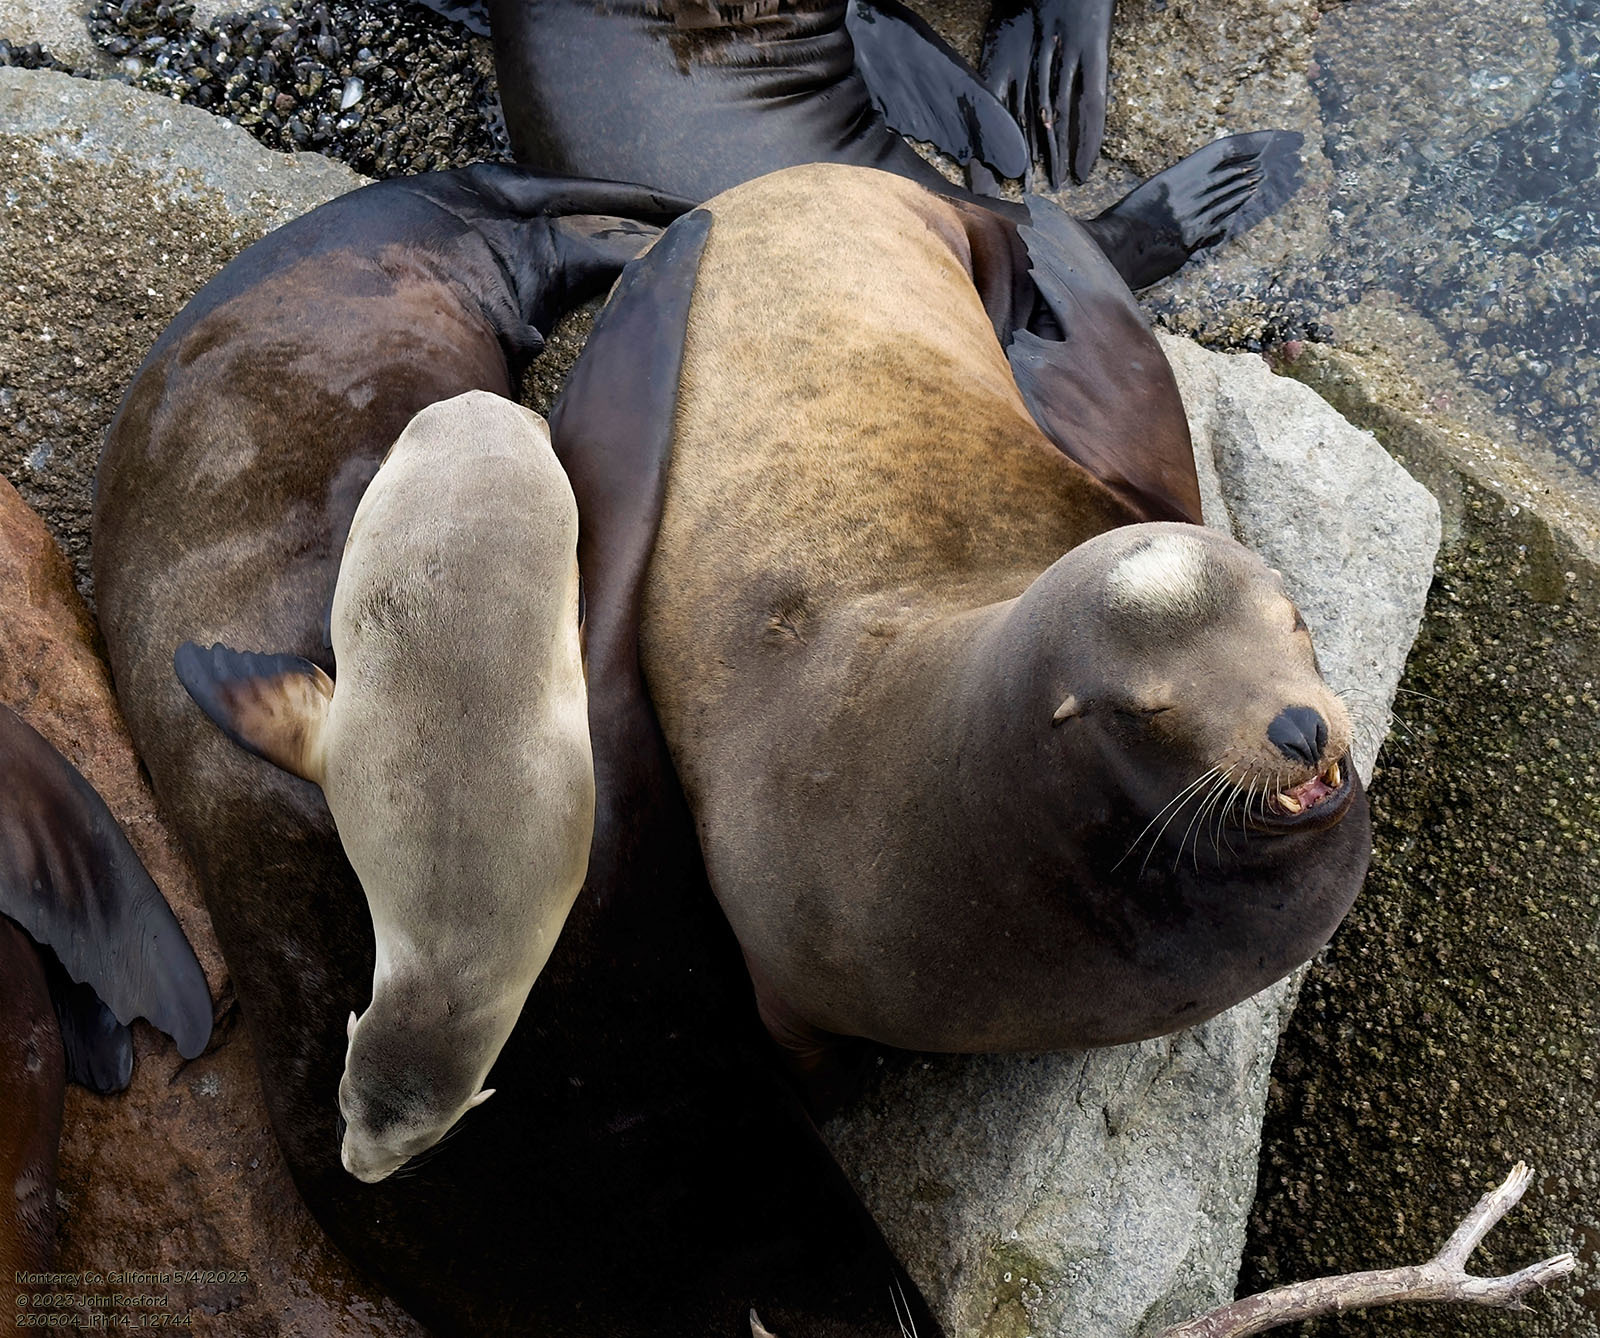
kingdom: Animalia
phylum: Chordata
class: Mammalia
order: Carnivora
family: Otariidae
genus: Zalophus
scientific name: Zalophus californianus
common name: California sea lion
